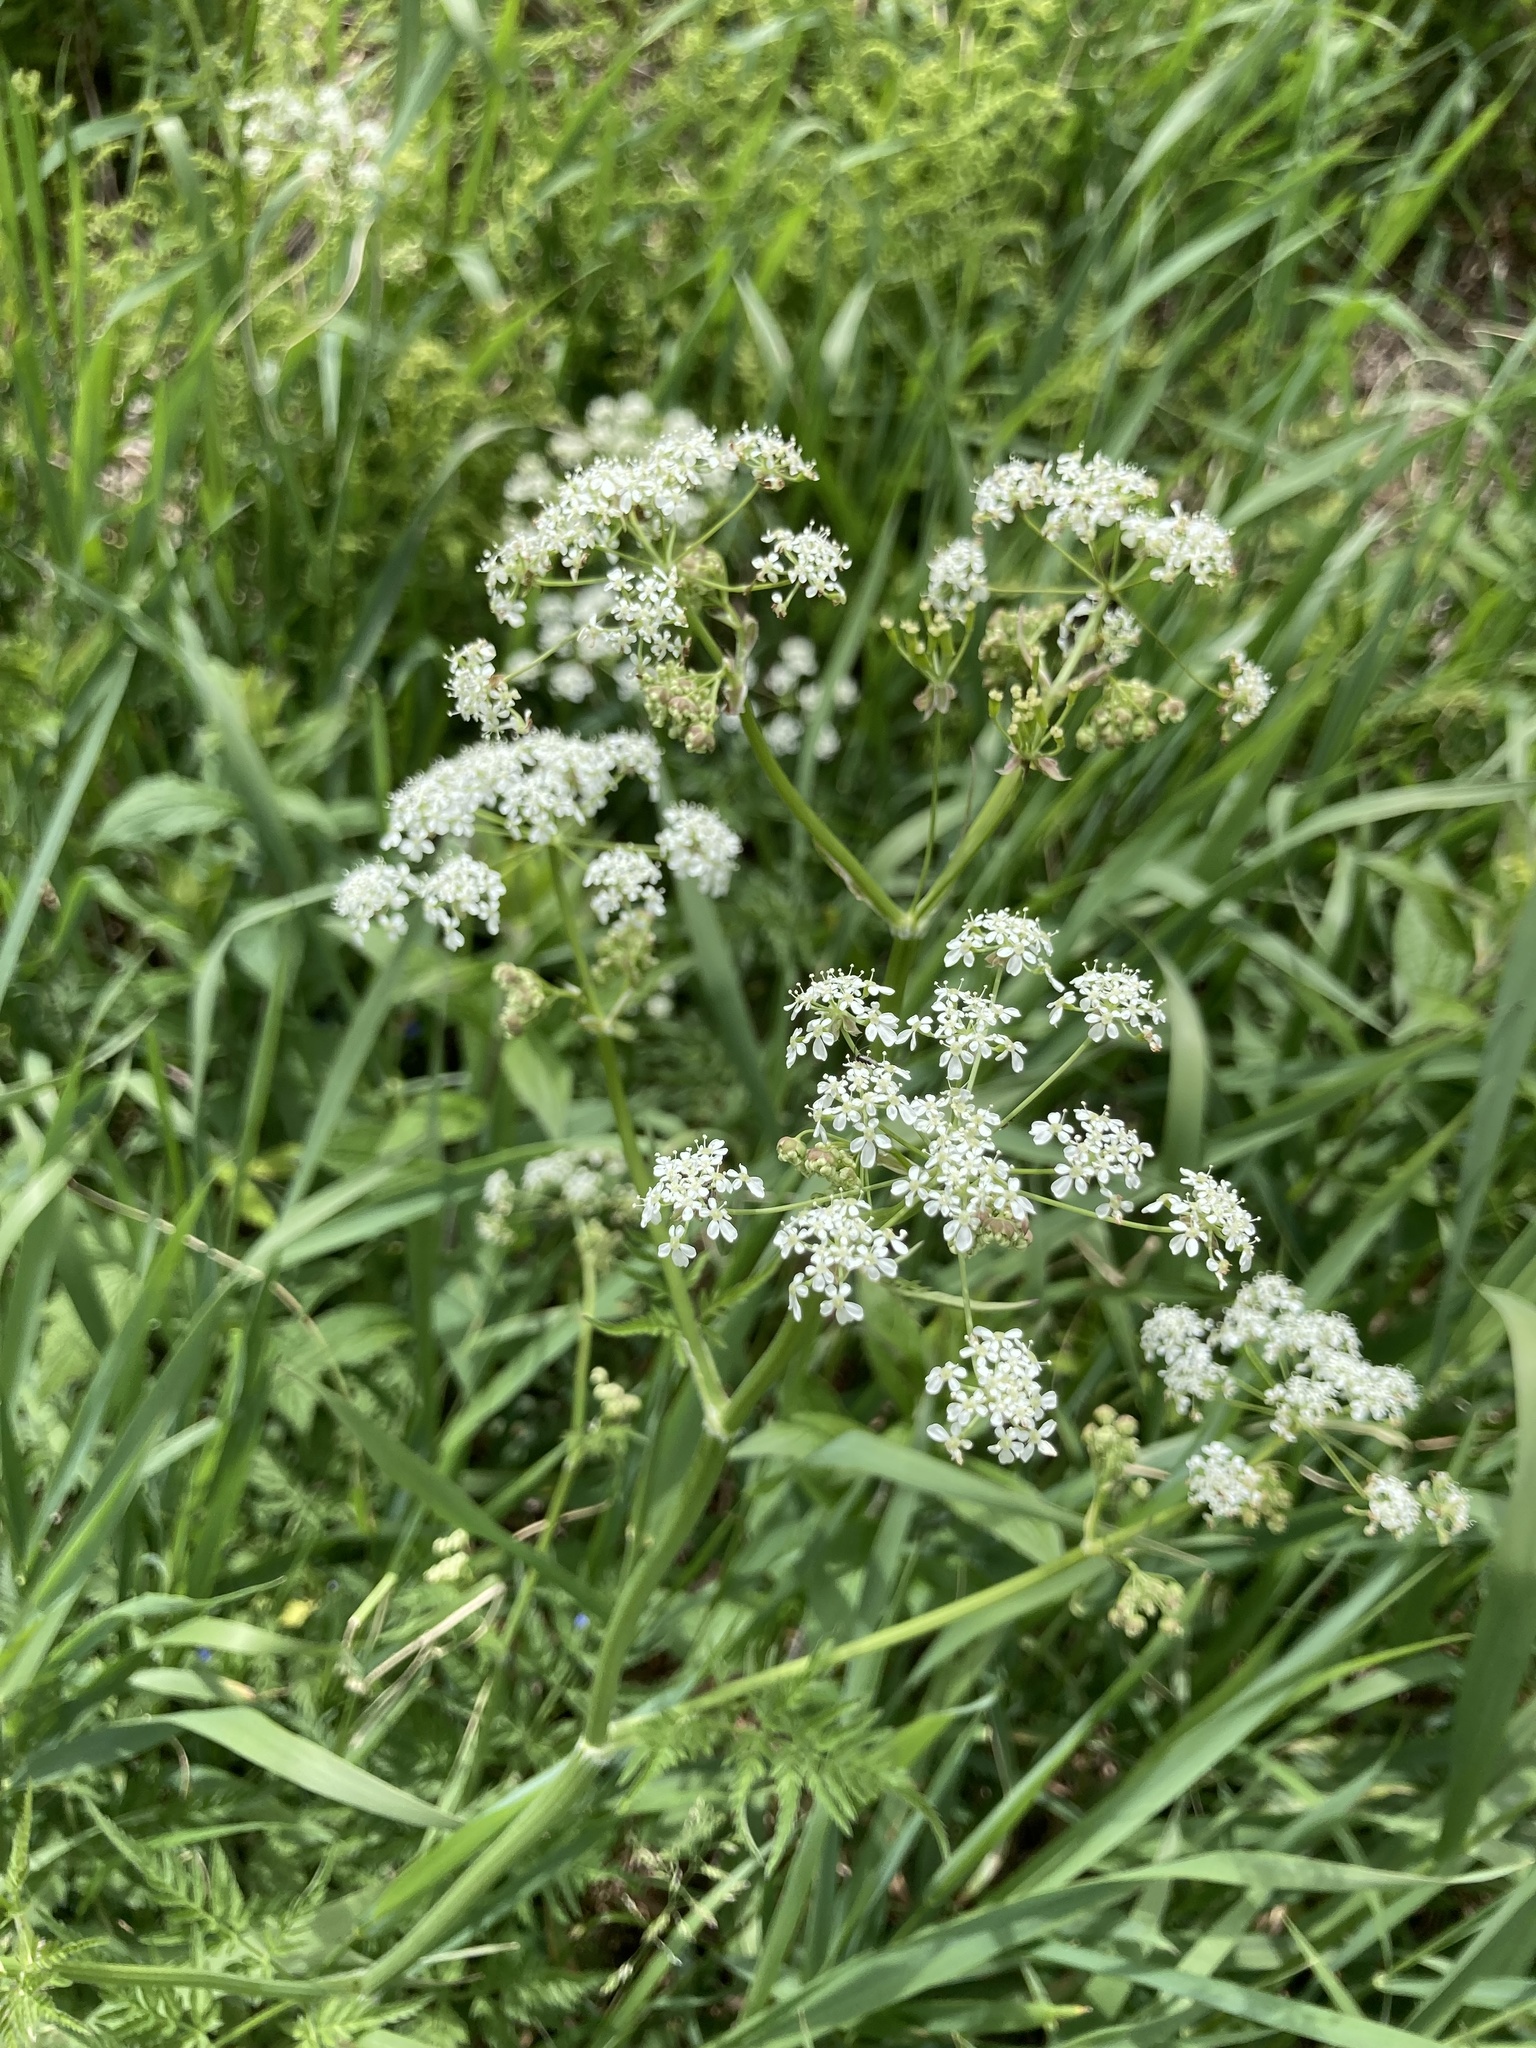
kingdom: Plantae
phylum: Tracheophyta
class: Magnoliopsida
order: Apiales
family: Apiaceae
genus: Anthriscus
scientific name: Anthriscus sylvestris
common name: Cow parsley
